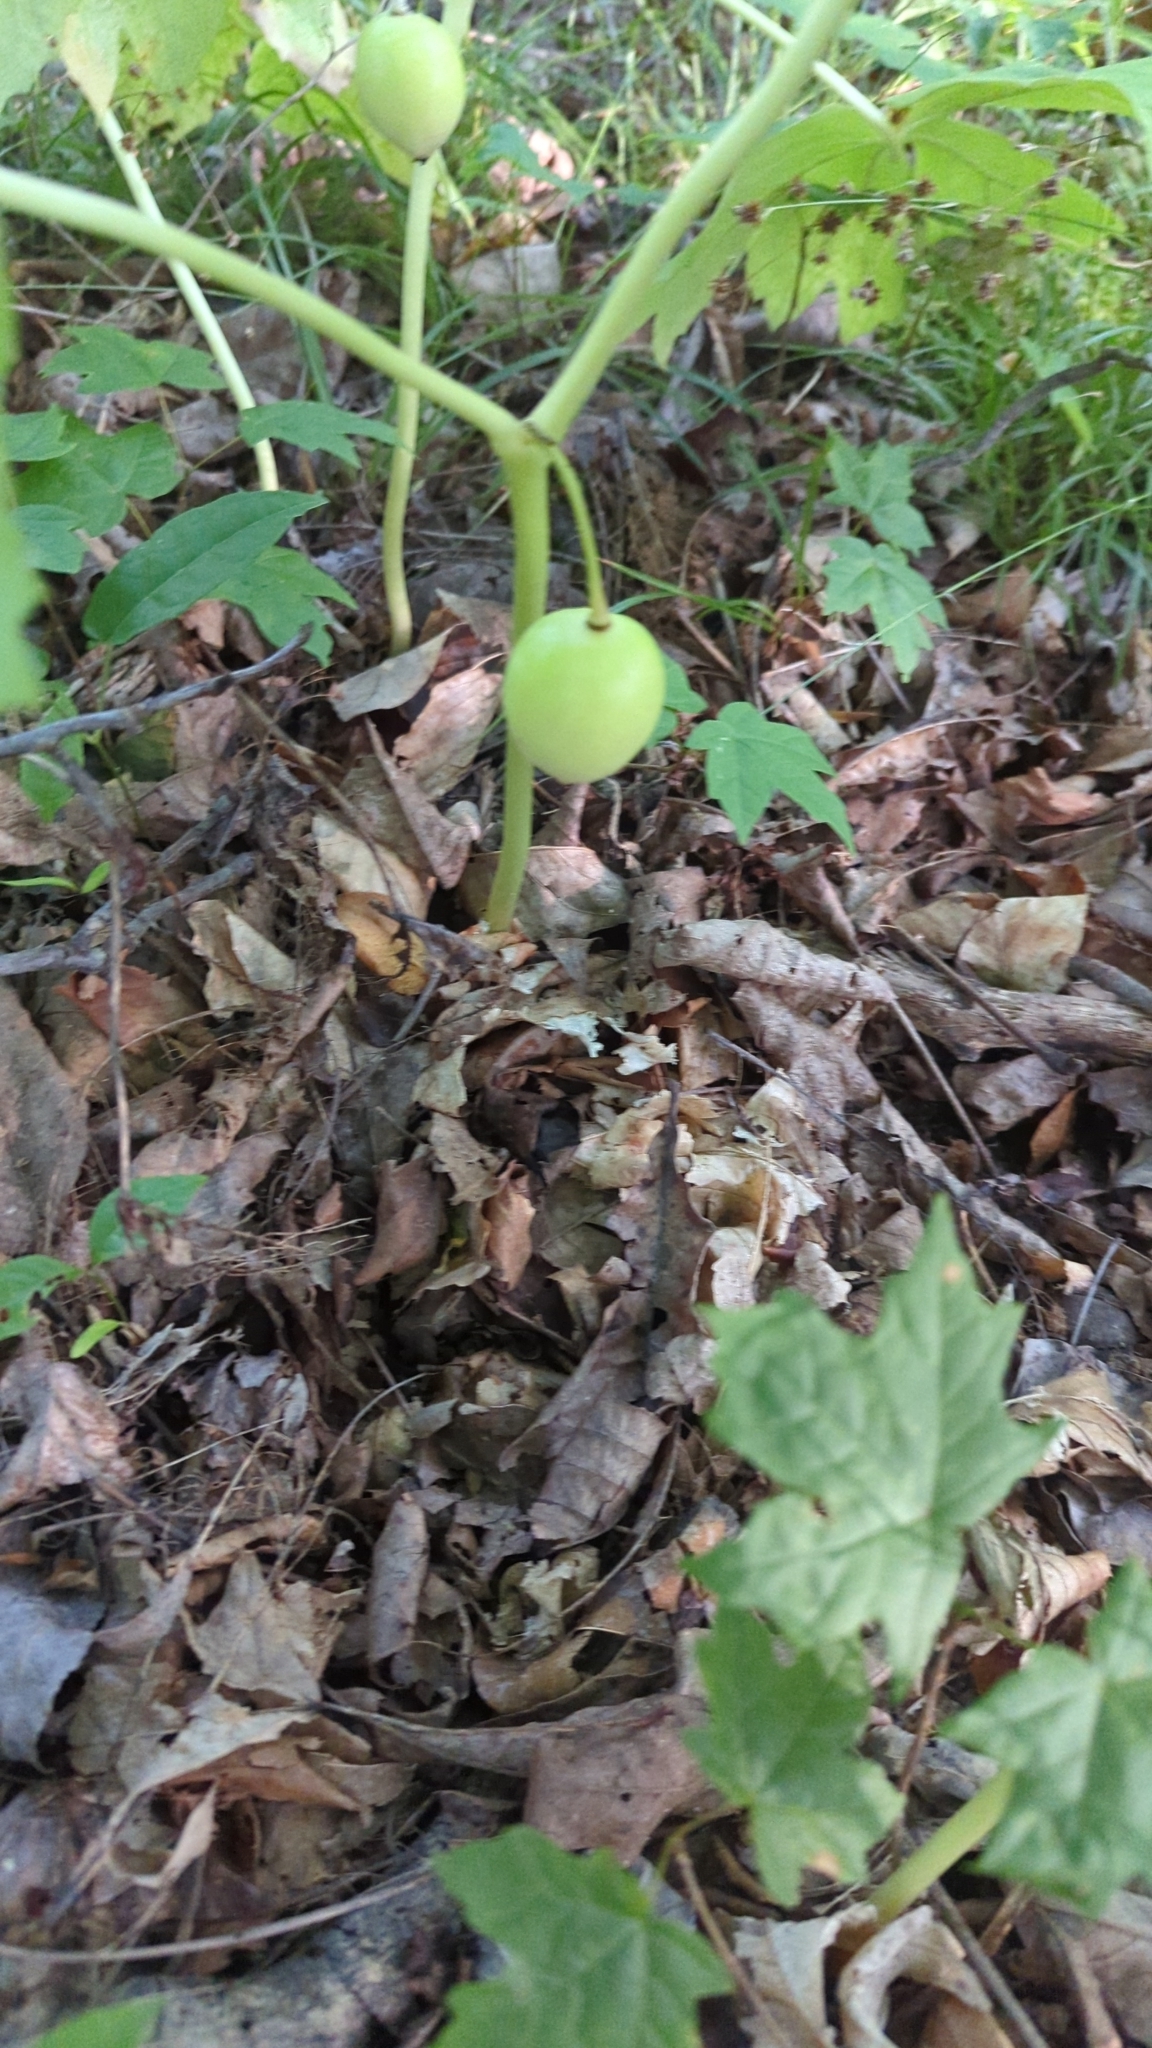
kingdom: Plantae
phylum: Tracheophyta
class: Magnoliopsida
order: Ranunculales
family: Berberidaceae
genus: Podophyllum
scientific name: Podophyllum peltatum
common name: Wild mandrake
